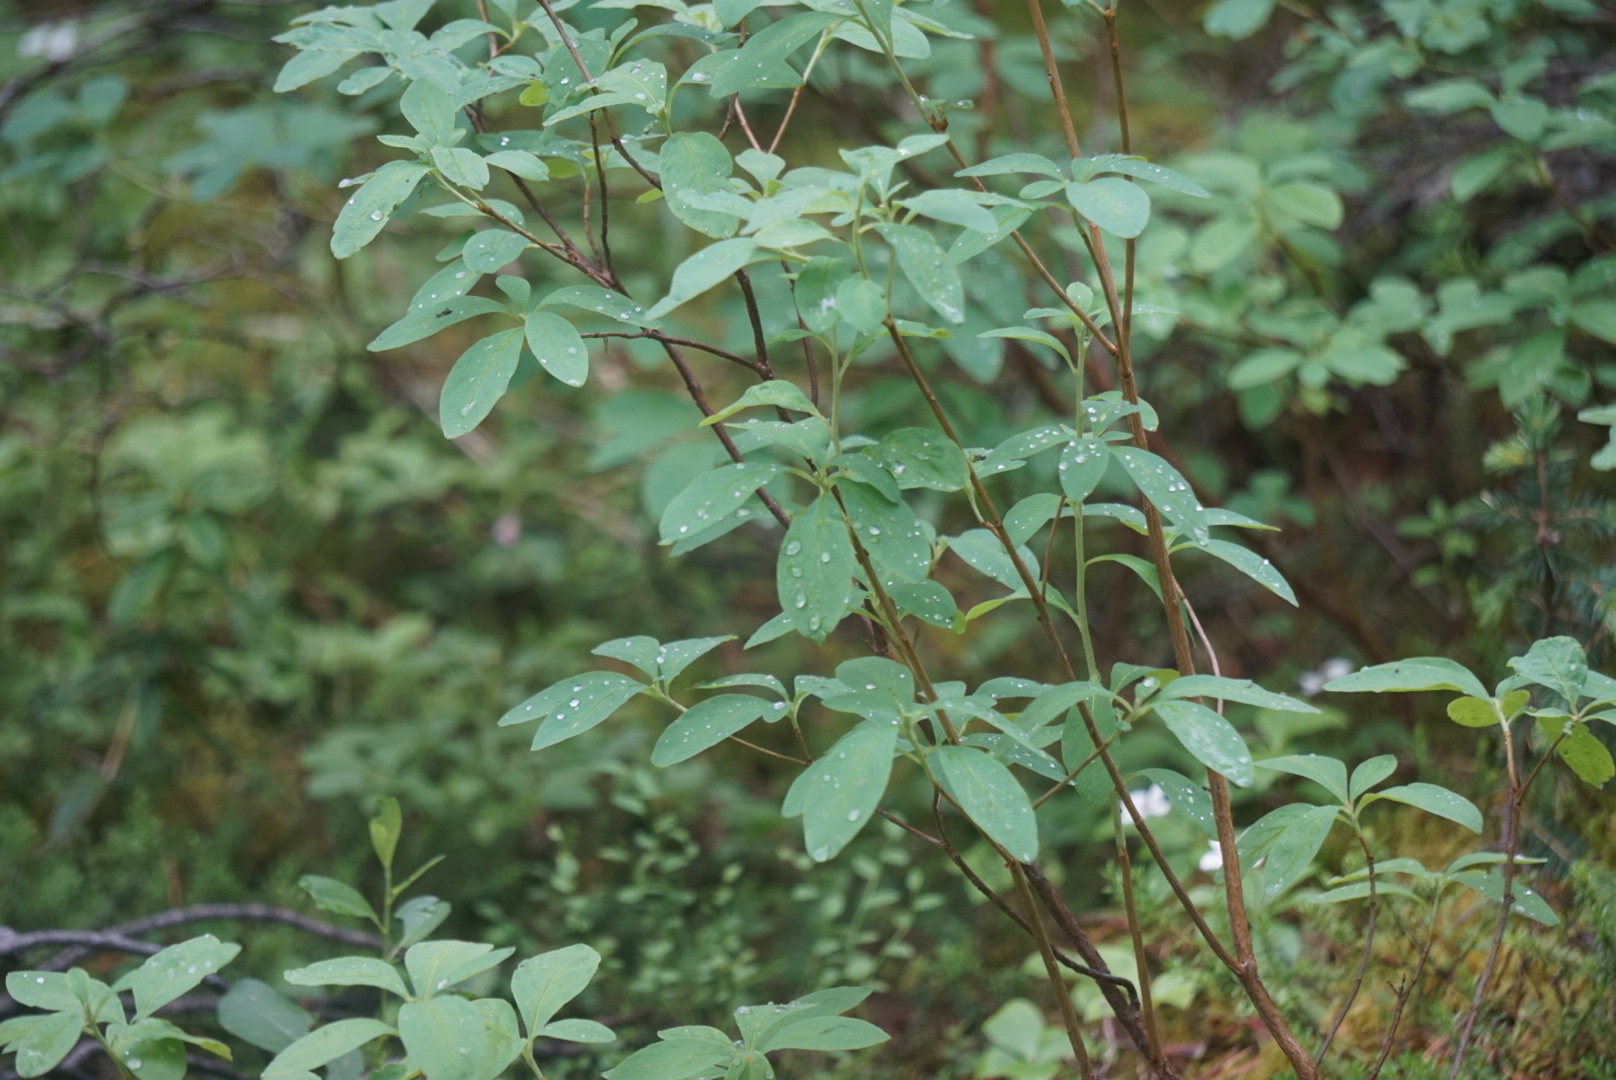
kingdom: Plantae
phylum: Tracheophyta
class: Magnoliopsida
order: Ericales
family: Ericaceae
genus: Rhododendron
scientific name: Rhododendron menziesii
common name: Pacific menziesia
